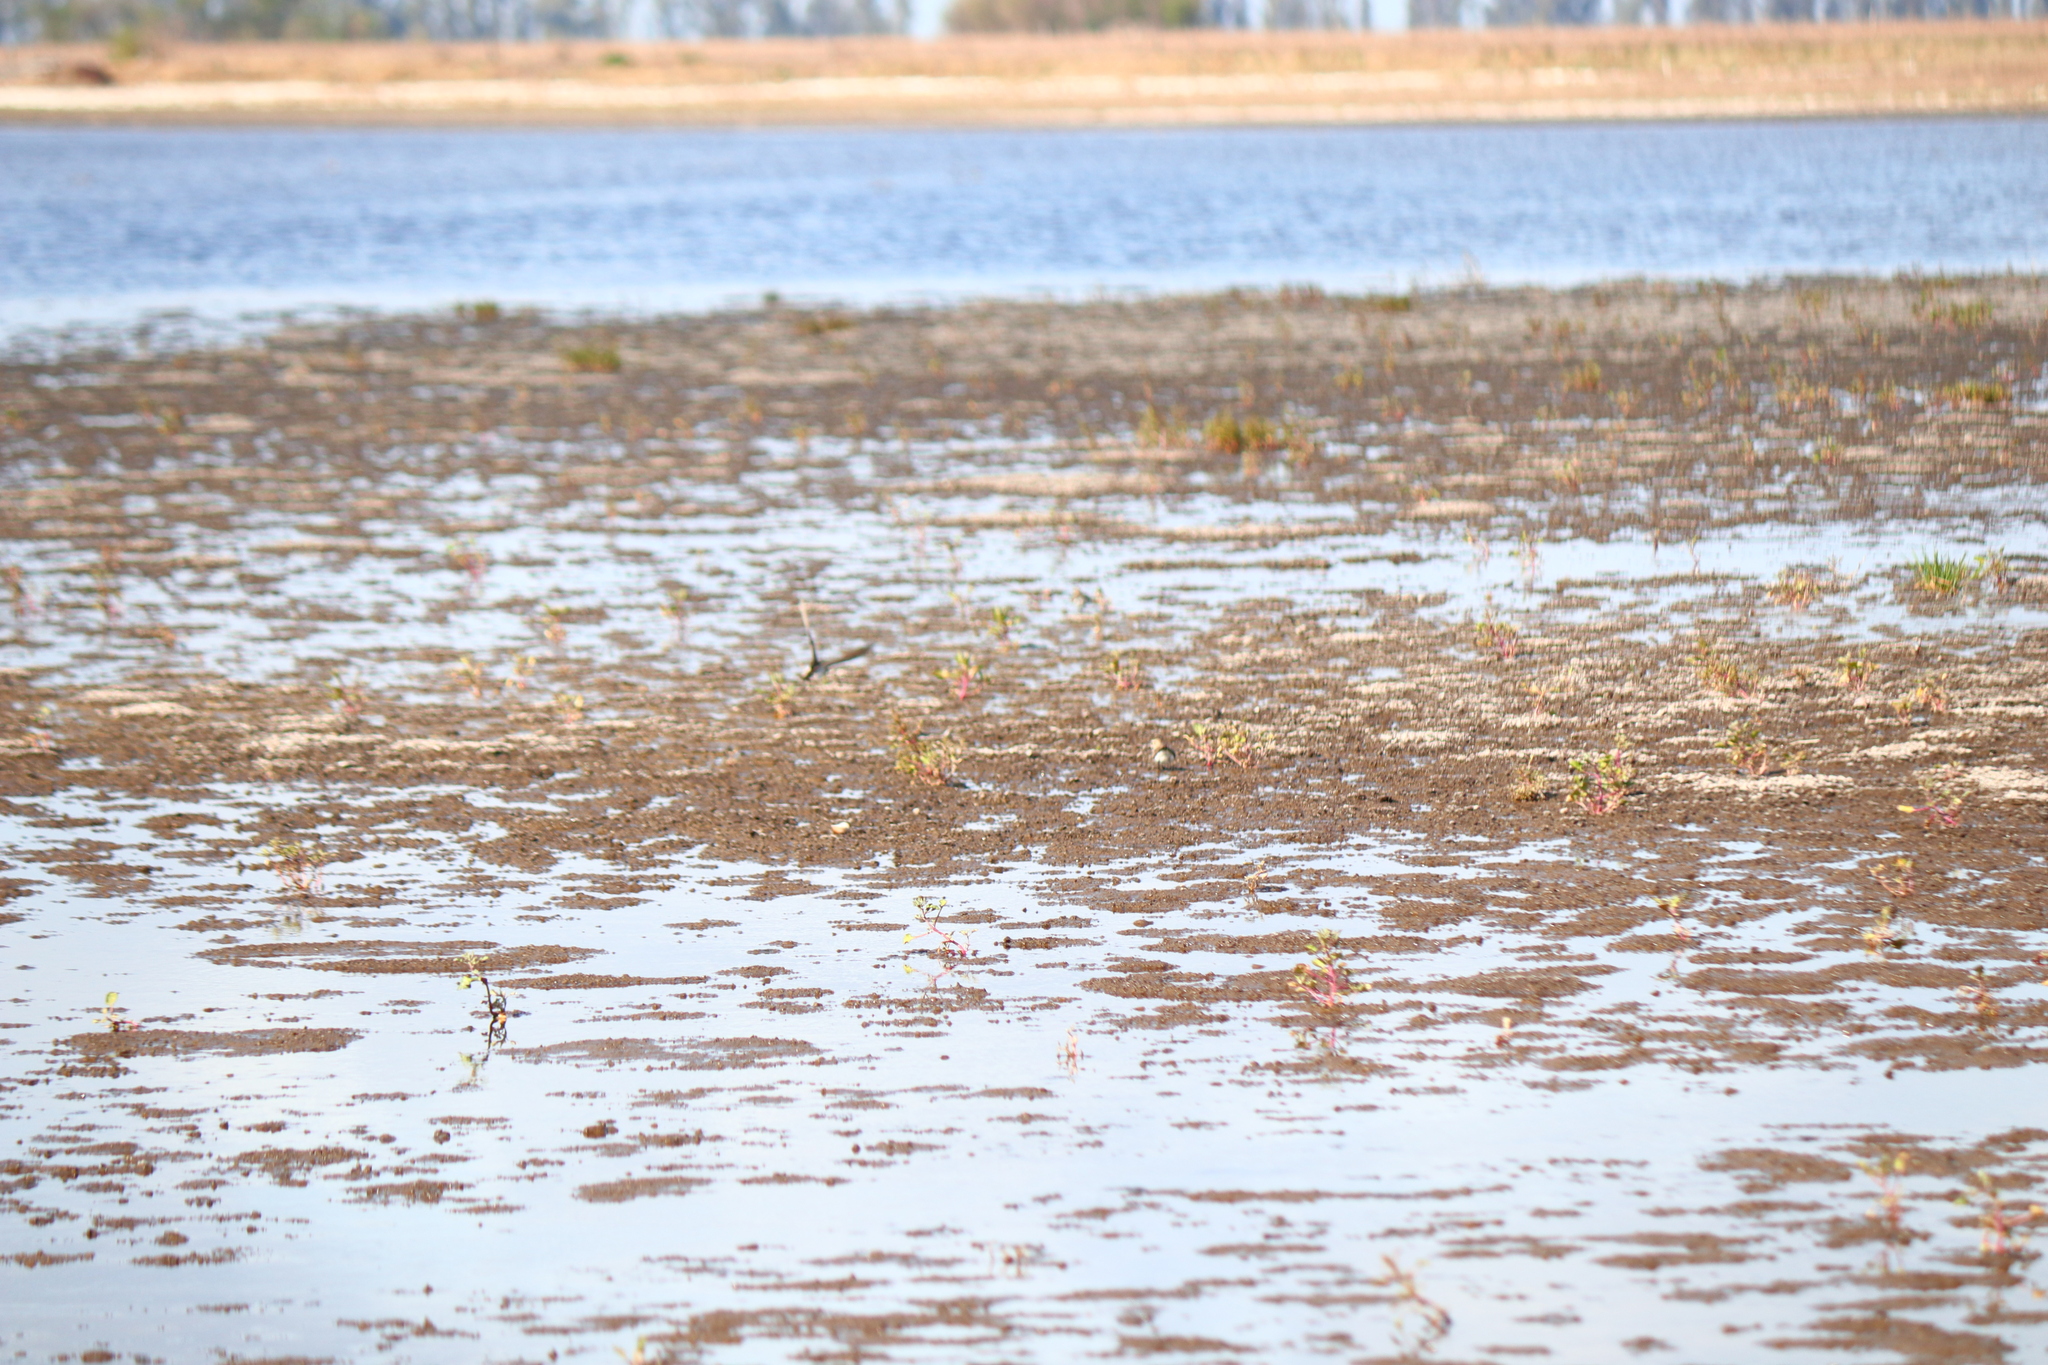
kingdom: Animalia
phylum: Chordata
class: Aves
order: Charadriiformes
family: Scolopacidae
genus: Calidris
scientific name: Calidris bairdii
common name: Baird's sandpiper
